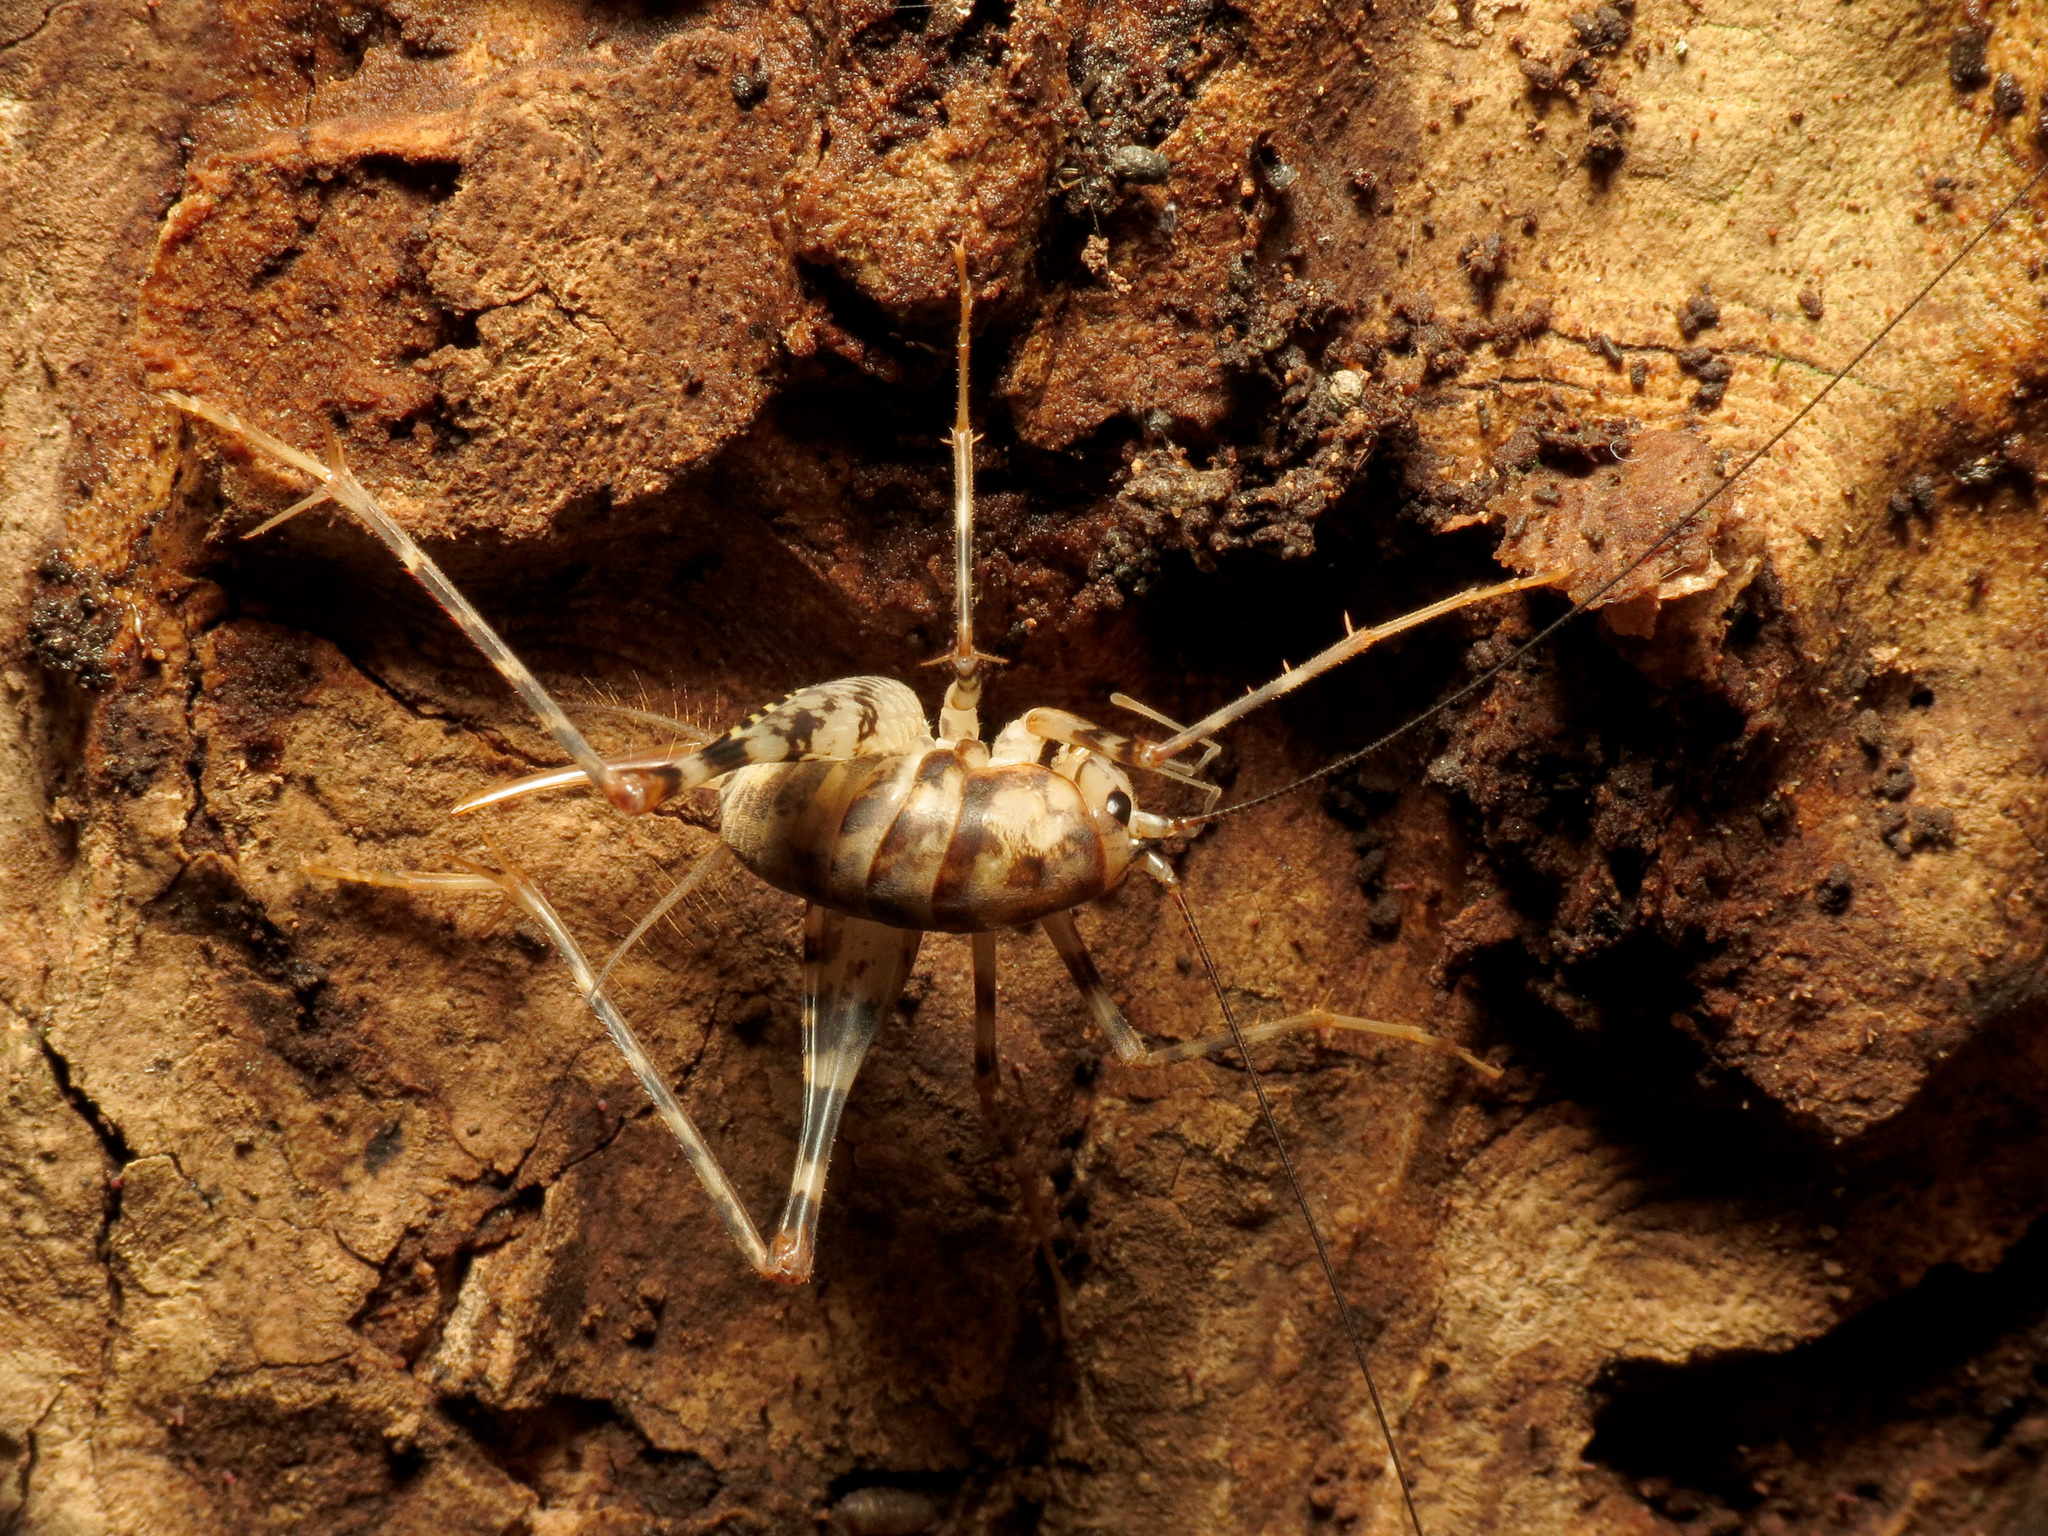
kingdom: Animalia
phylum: Arthropoda
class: Insecta
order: Orthoptera
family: Rhaphidophoridae
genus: Tachycines
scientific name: Tachycines asynamorus
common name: Greenhouse camel cricket
